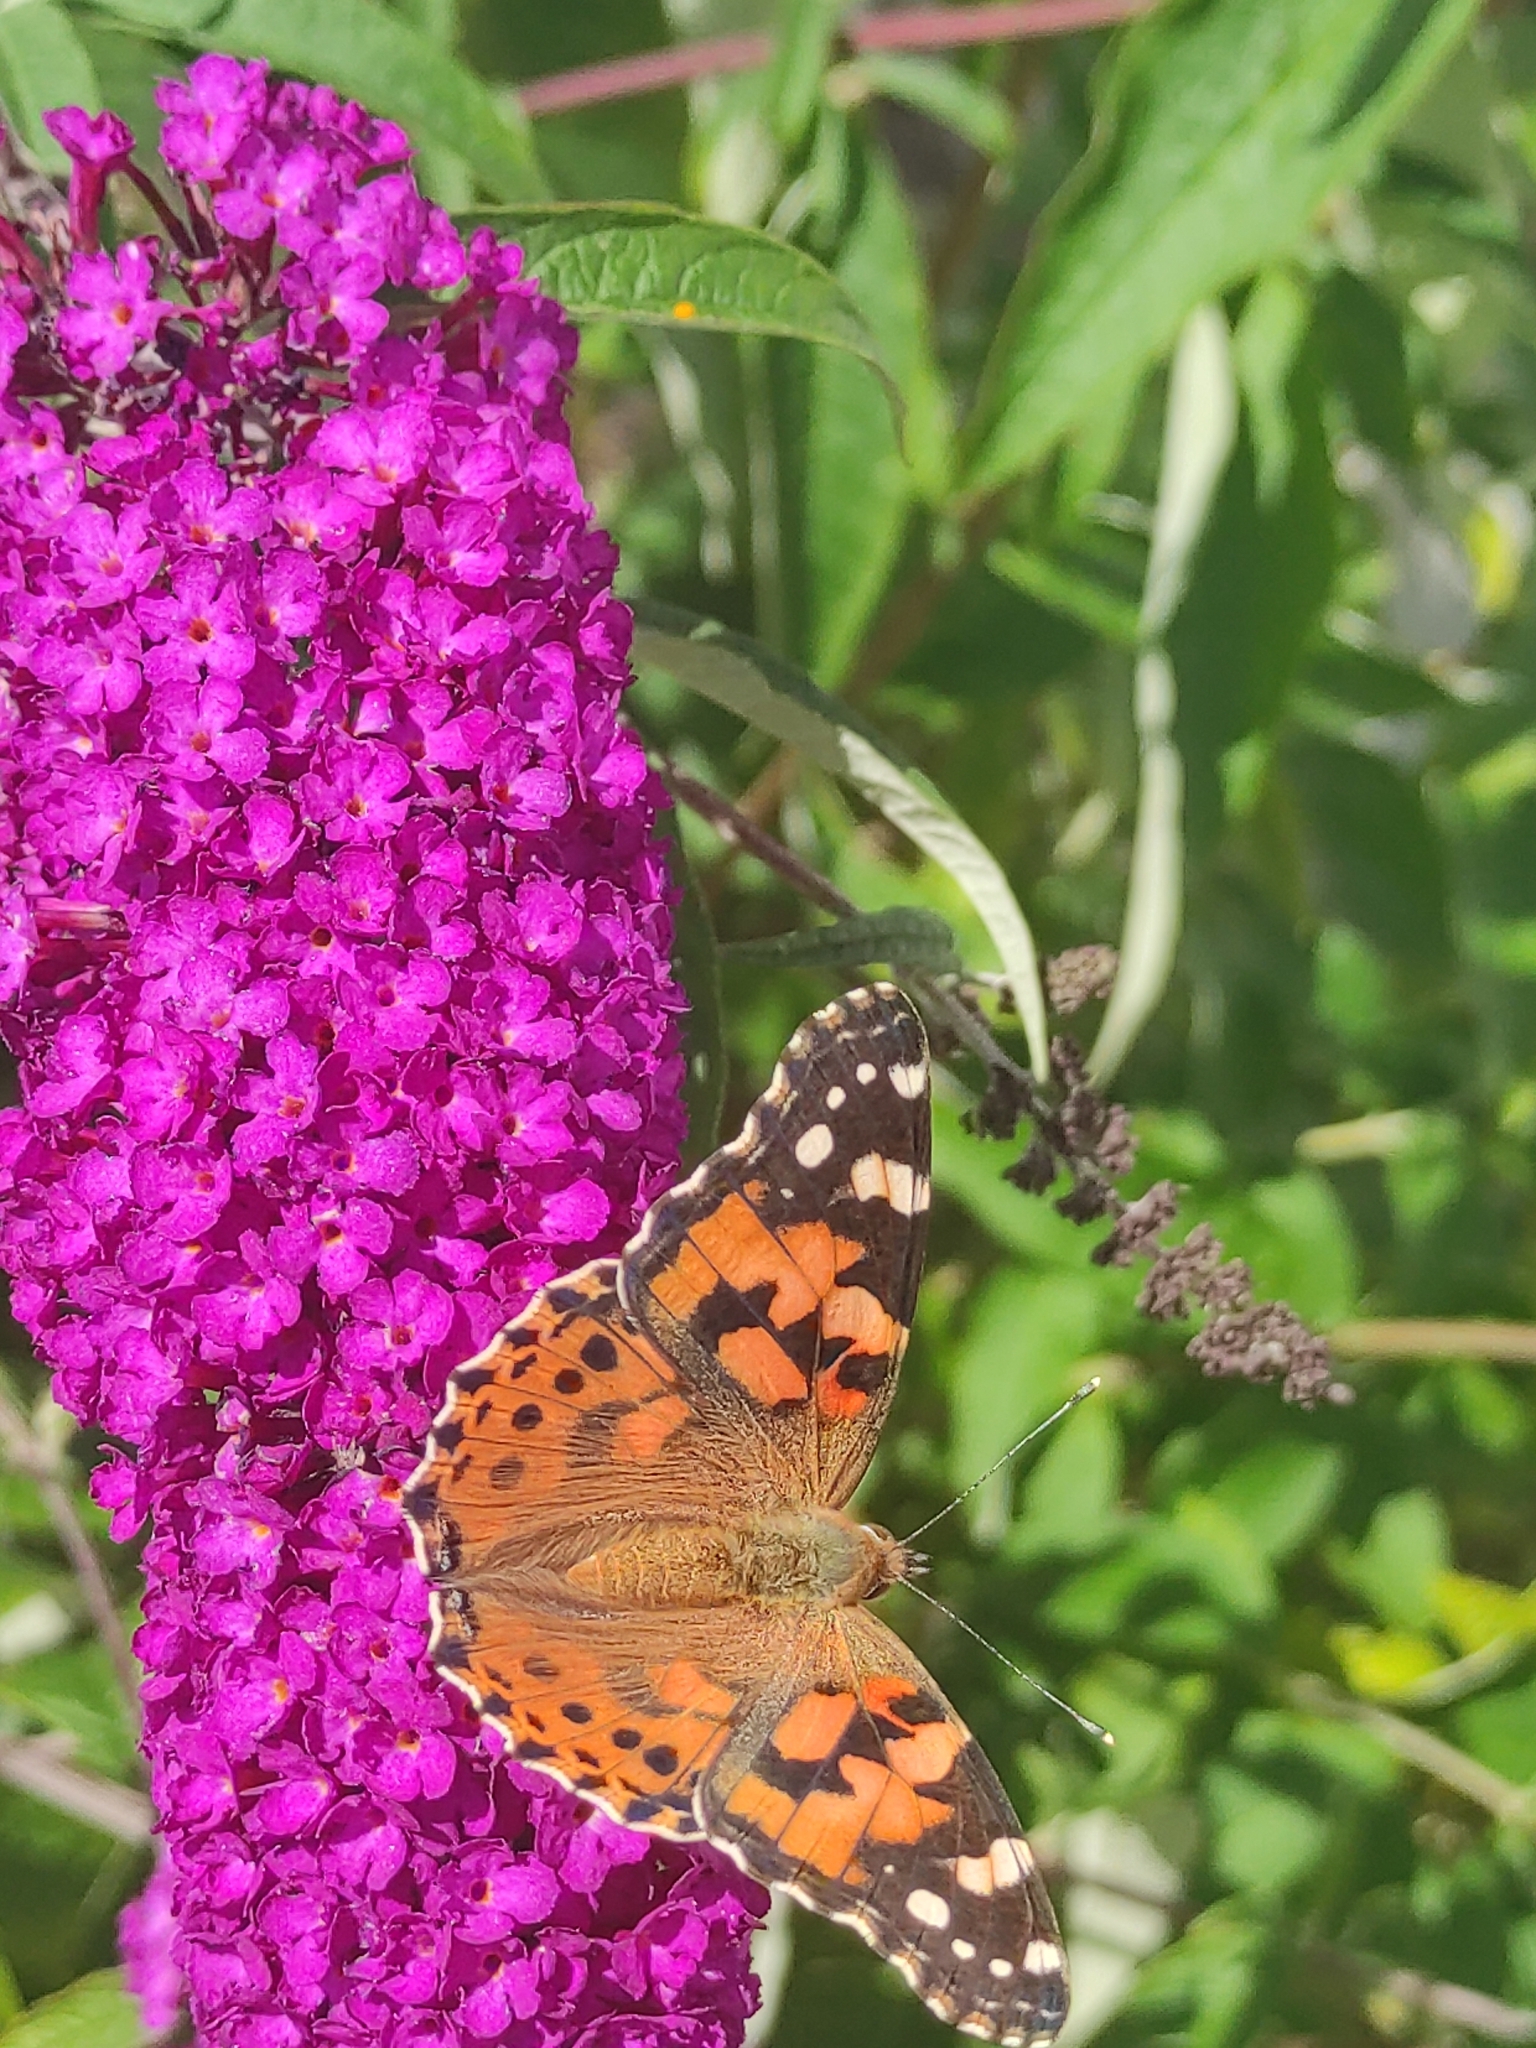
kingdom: Animalia
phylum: Arthropoda
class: Insecta
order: Lepidoptera
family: Nymphalidae
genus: Vanessa
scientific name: Vanessa cardui
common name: Painted lady
